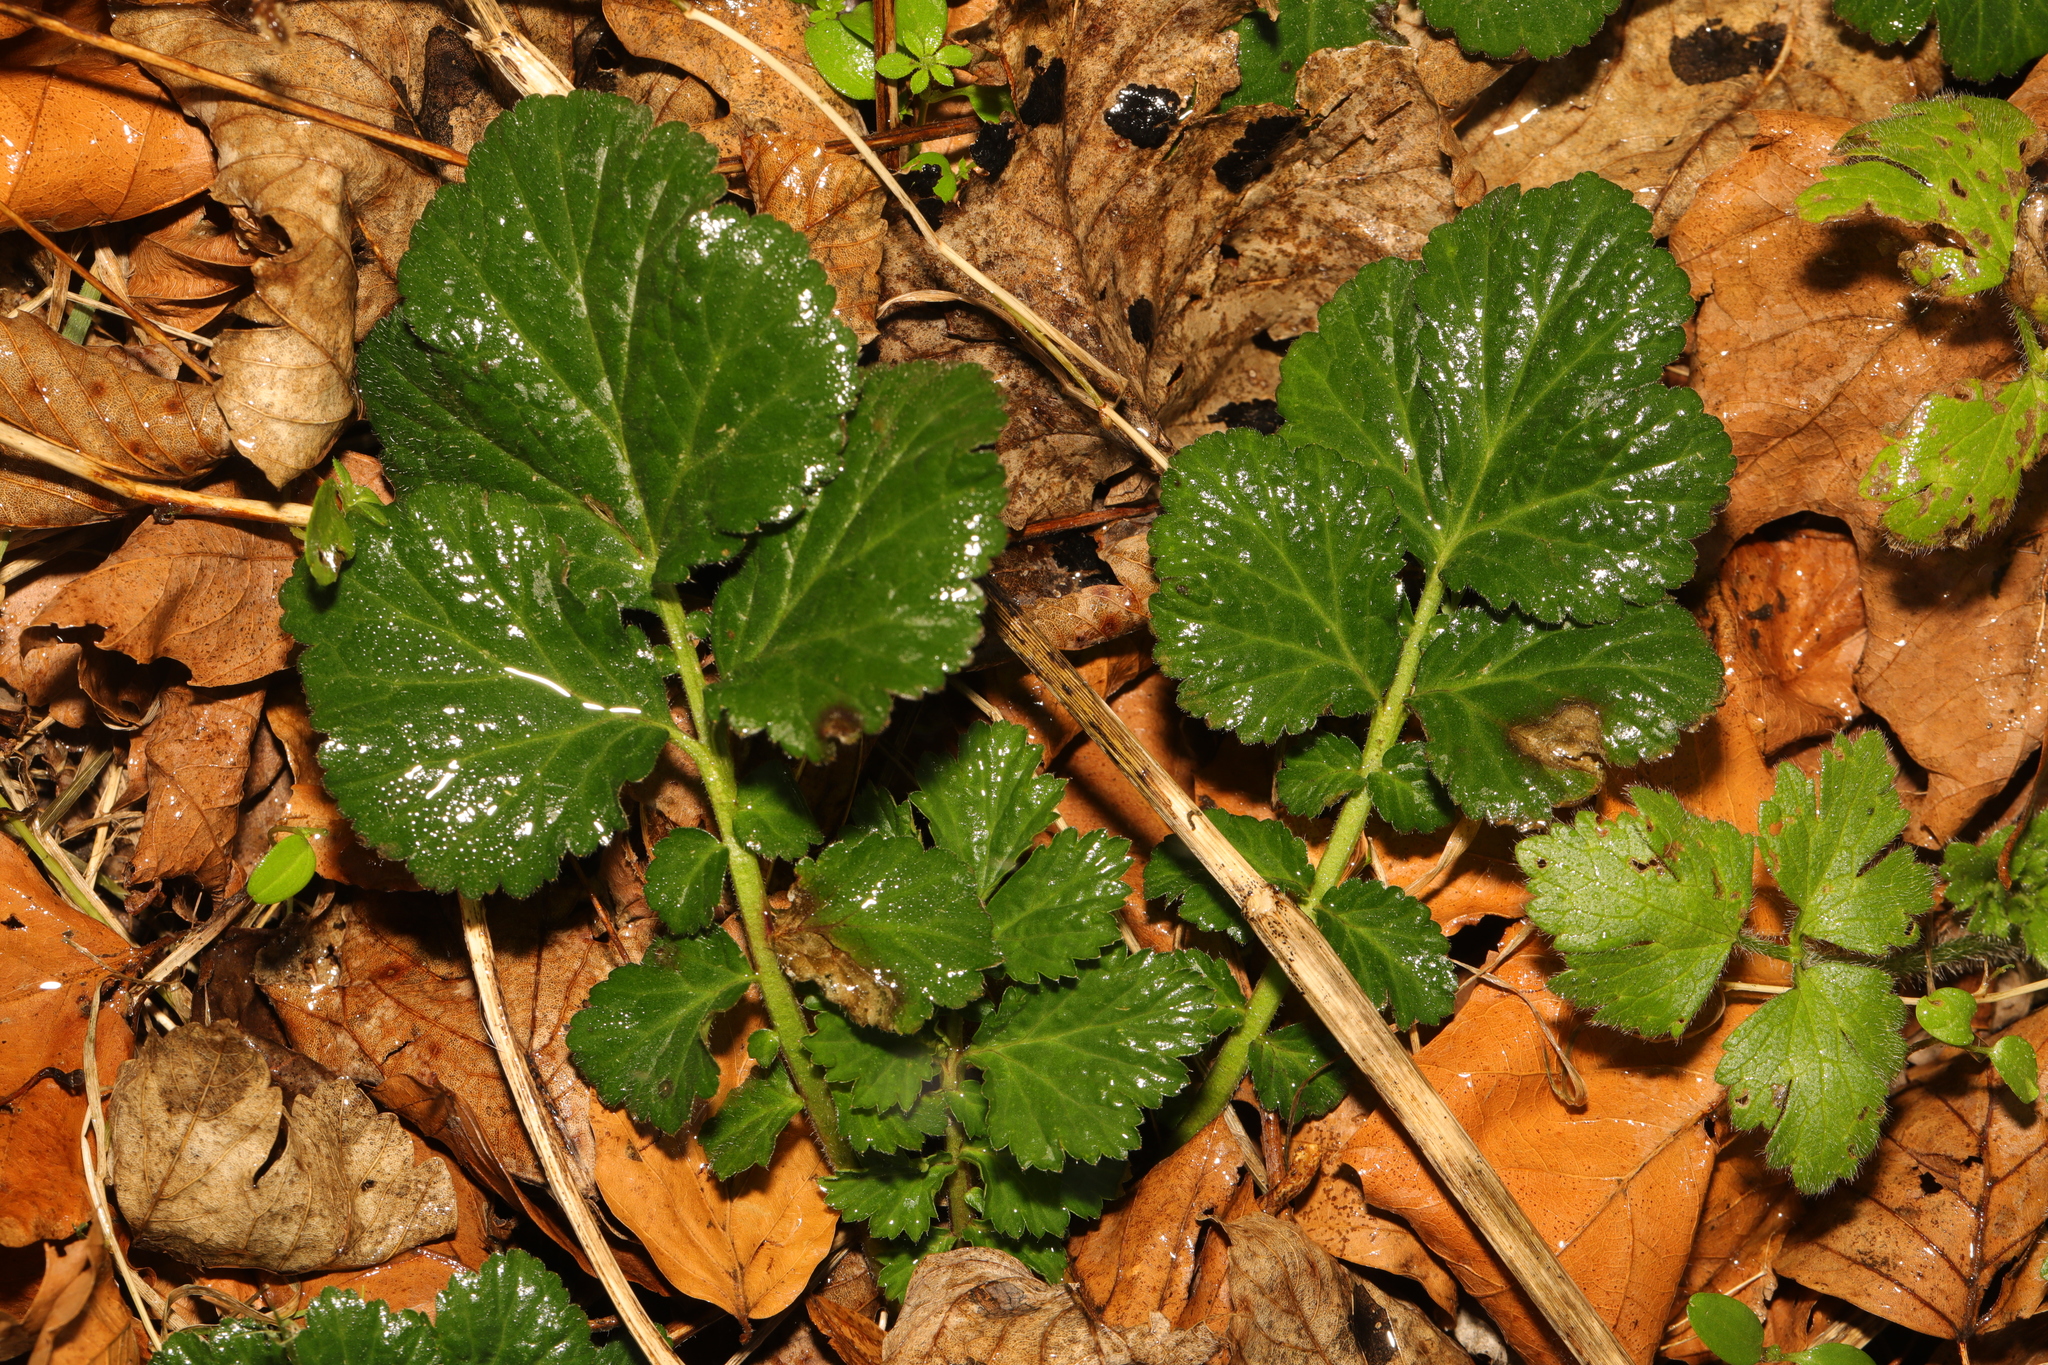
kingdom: Plantae
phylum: Tracheophyta
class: Magnoliopsida
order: Rosales
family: Rosaceae
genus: Geum
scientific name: Geum urbanum
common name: Wood avens
